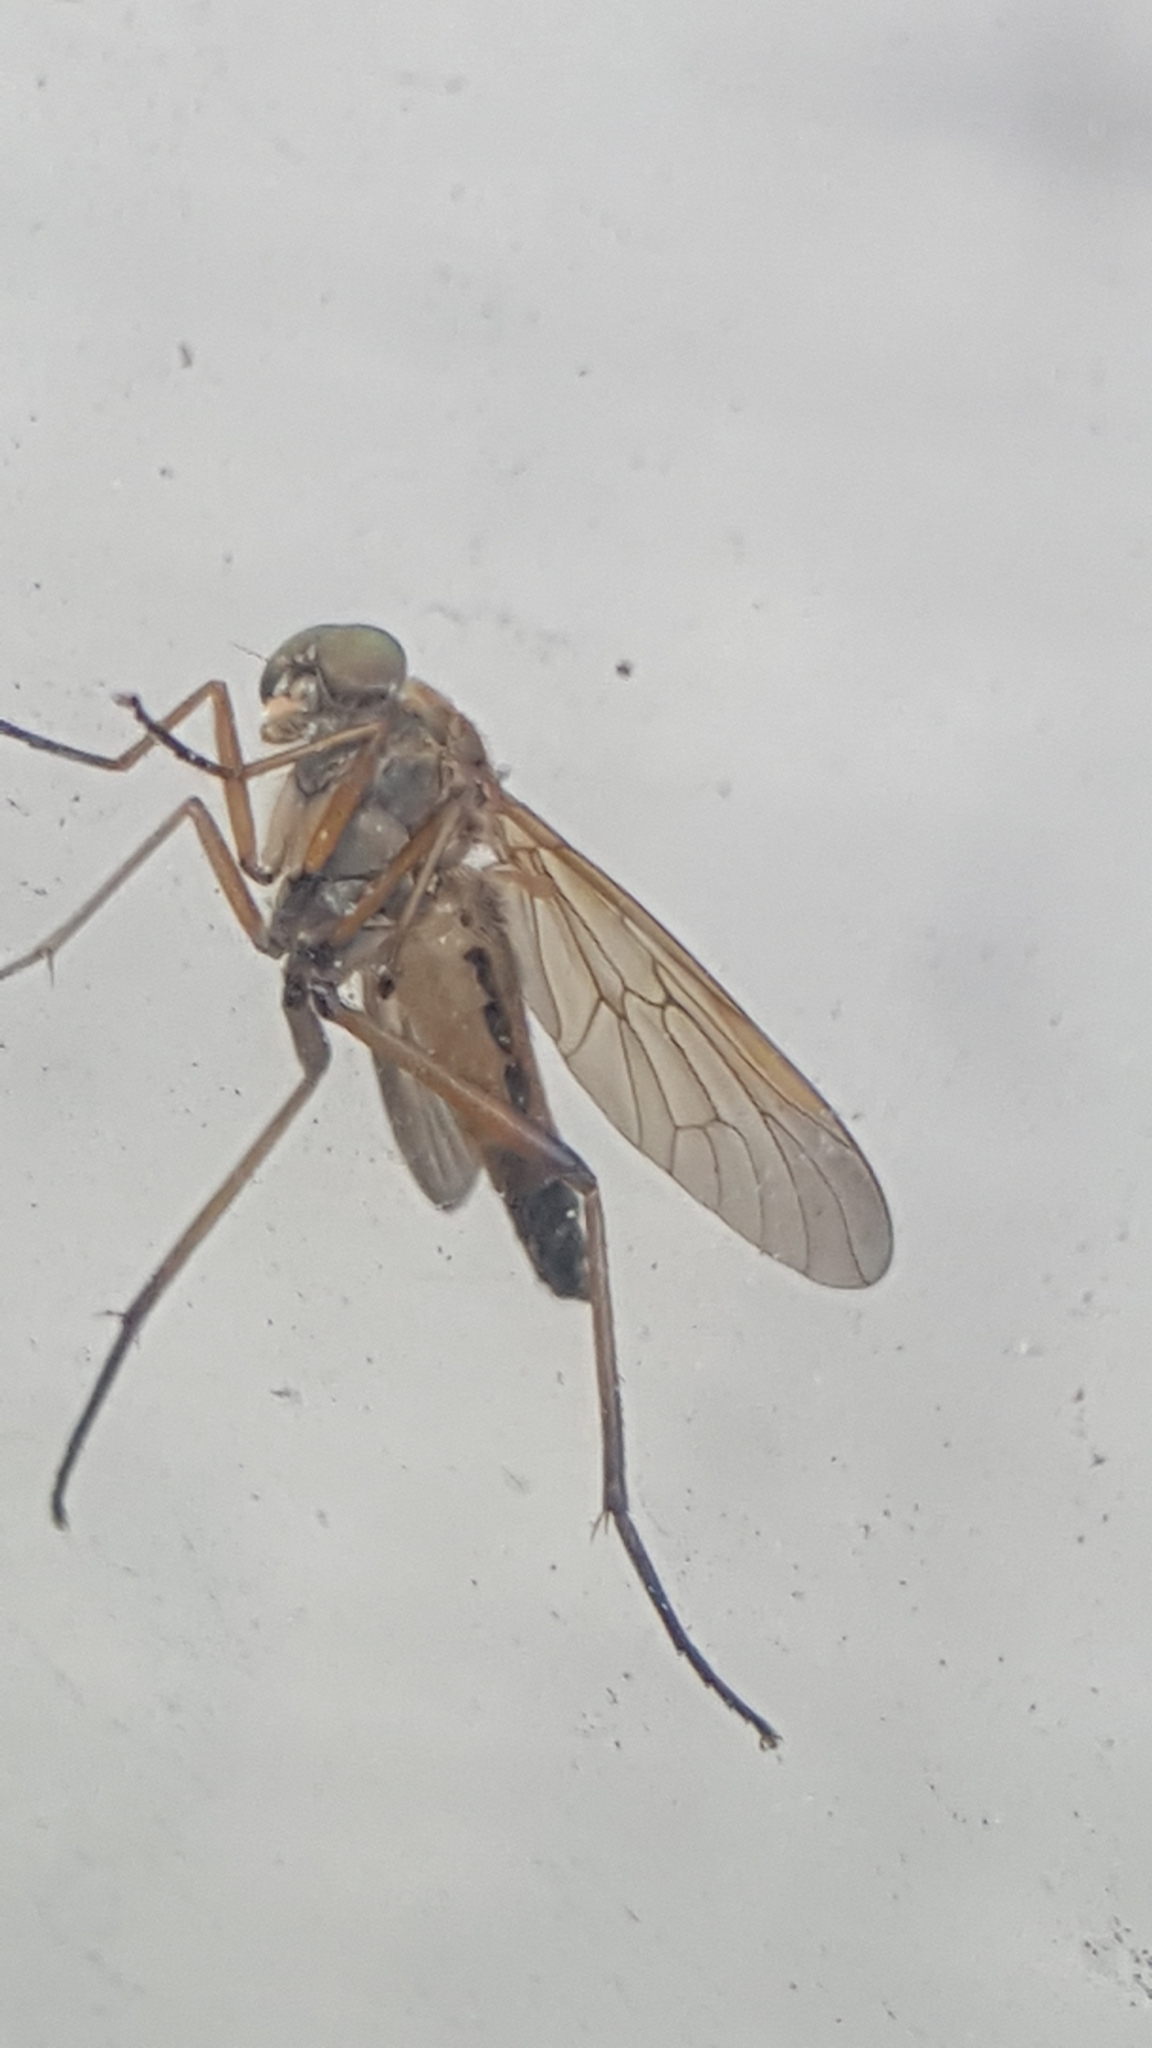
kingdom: Animalia
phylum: Arthropoda
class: Insecta
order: Diptera
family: Rhagionidae
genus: Rhagio
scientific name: Rhagio tringaria
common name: Marsh snipefly
